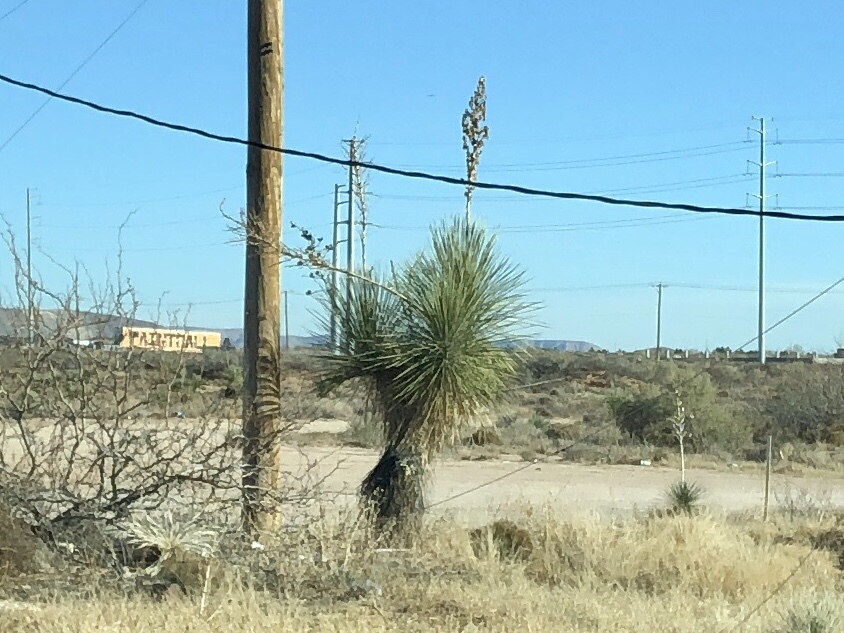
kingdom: Plantae
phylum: Tracheophyta
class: Liliopsida
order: Asparagales
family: Asparagaceae
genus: Yucca
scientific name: Yucca elata
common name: Palmella
